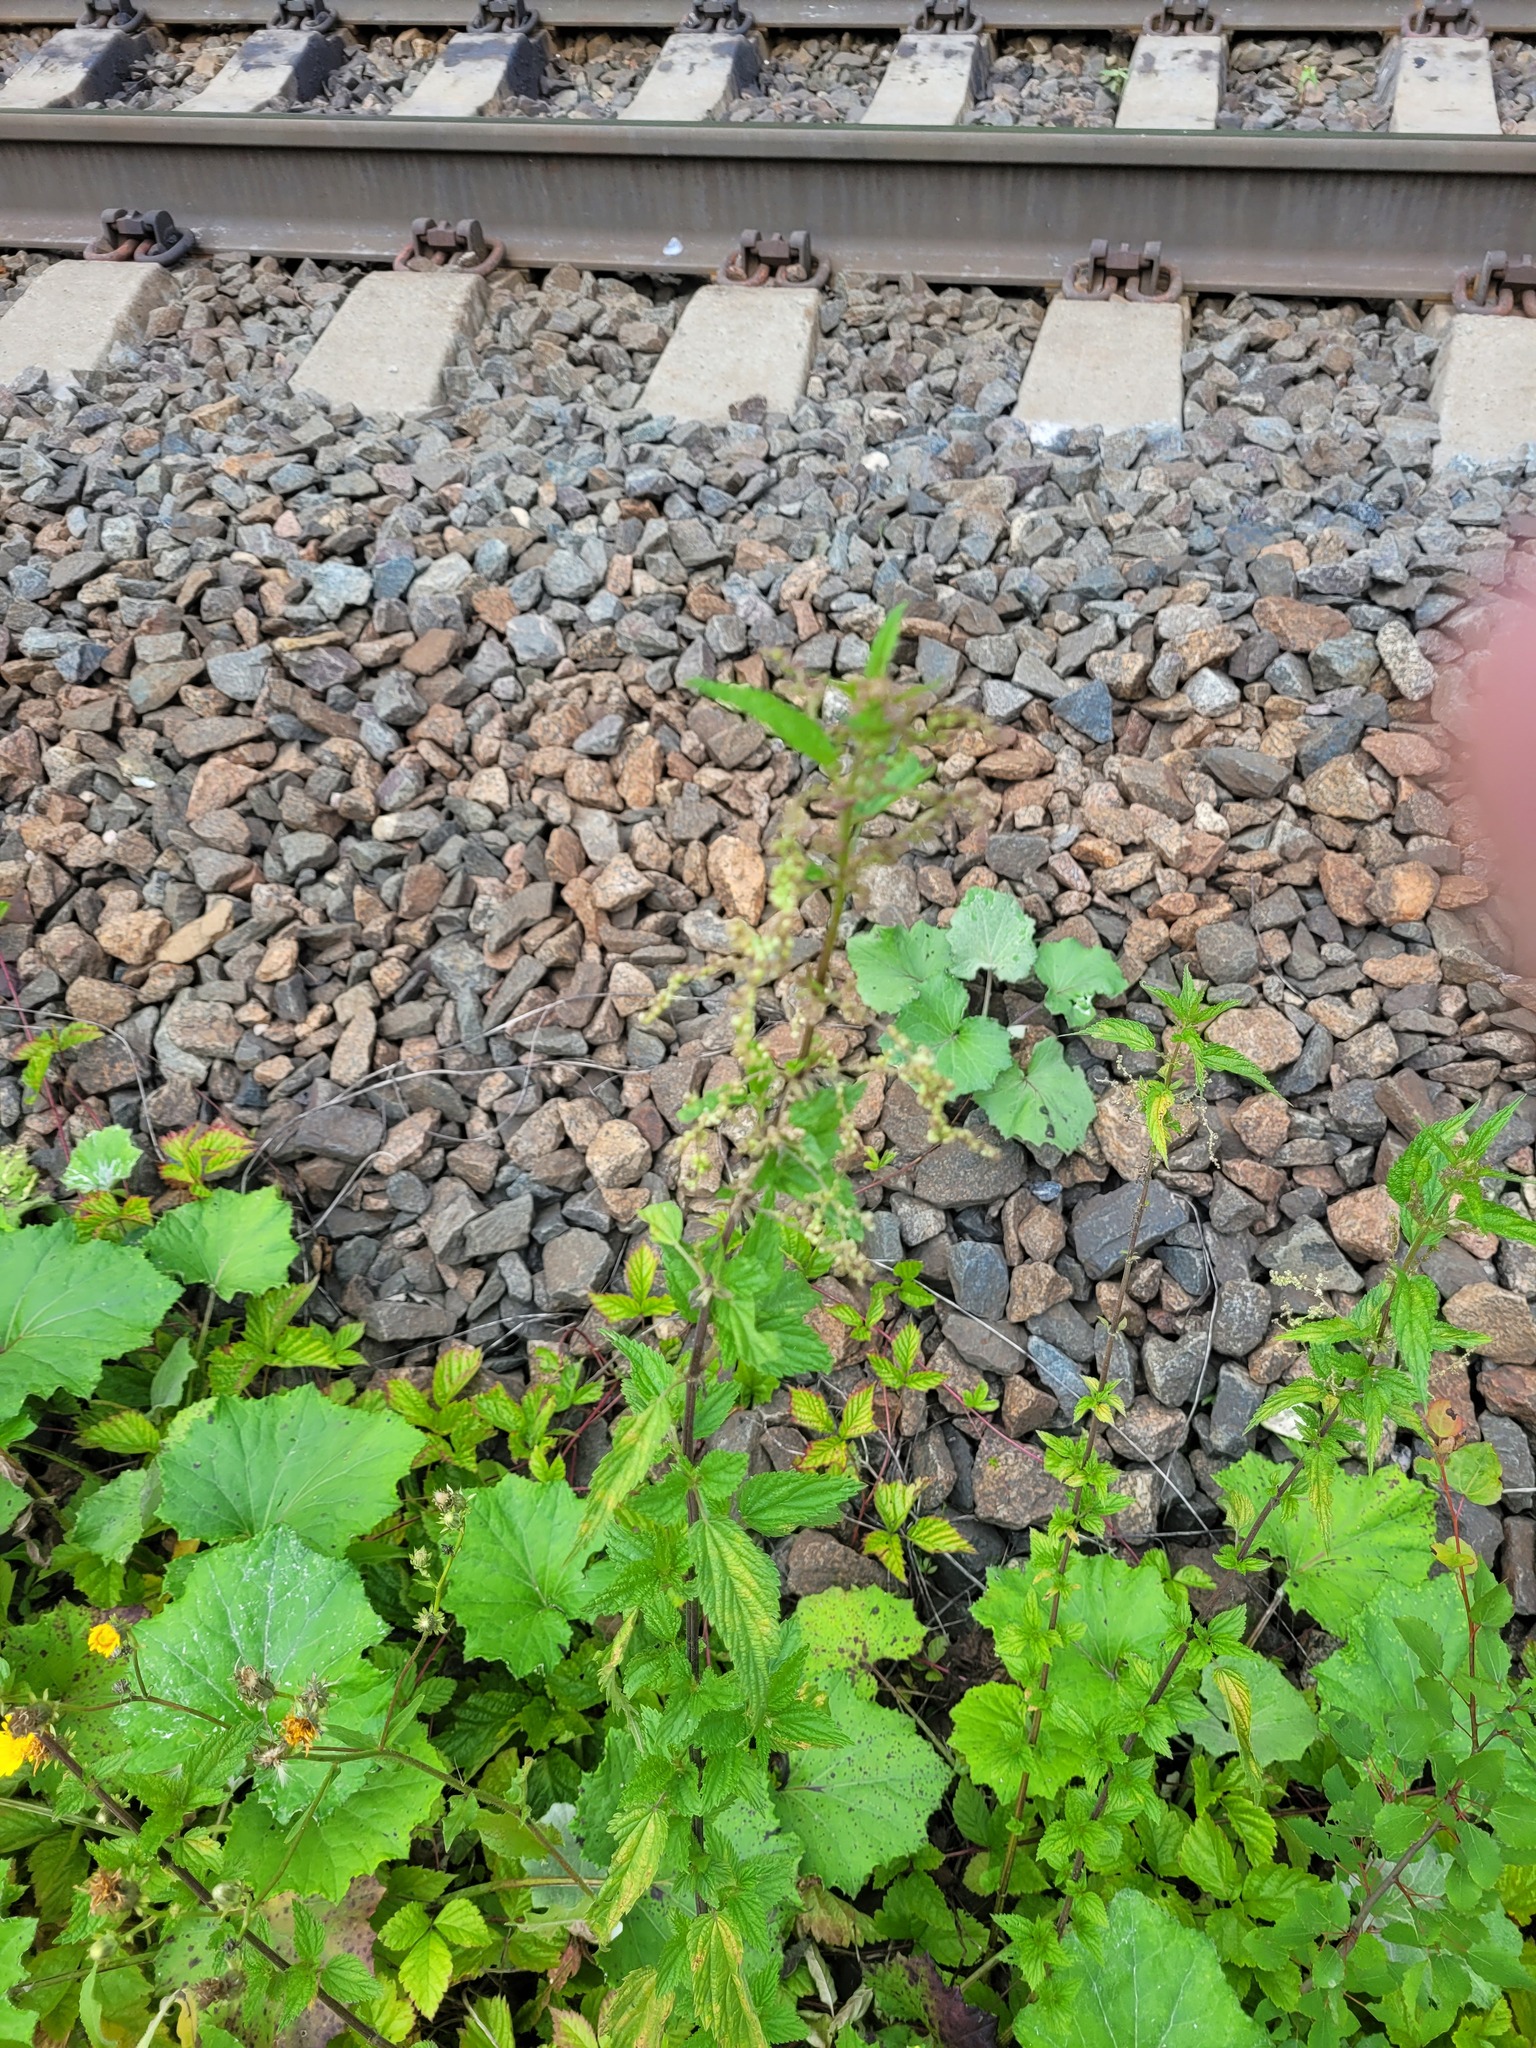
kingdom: Plantae
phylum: Tracheophyta
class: Magnoliopsida
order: Rosales
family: Urticaceae
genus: Urtica
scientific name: Urtica dioica
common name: Common nettle
